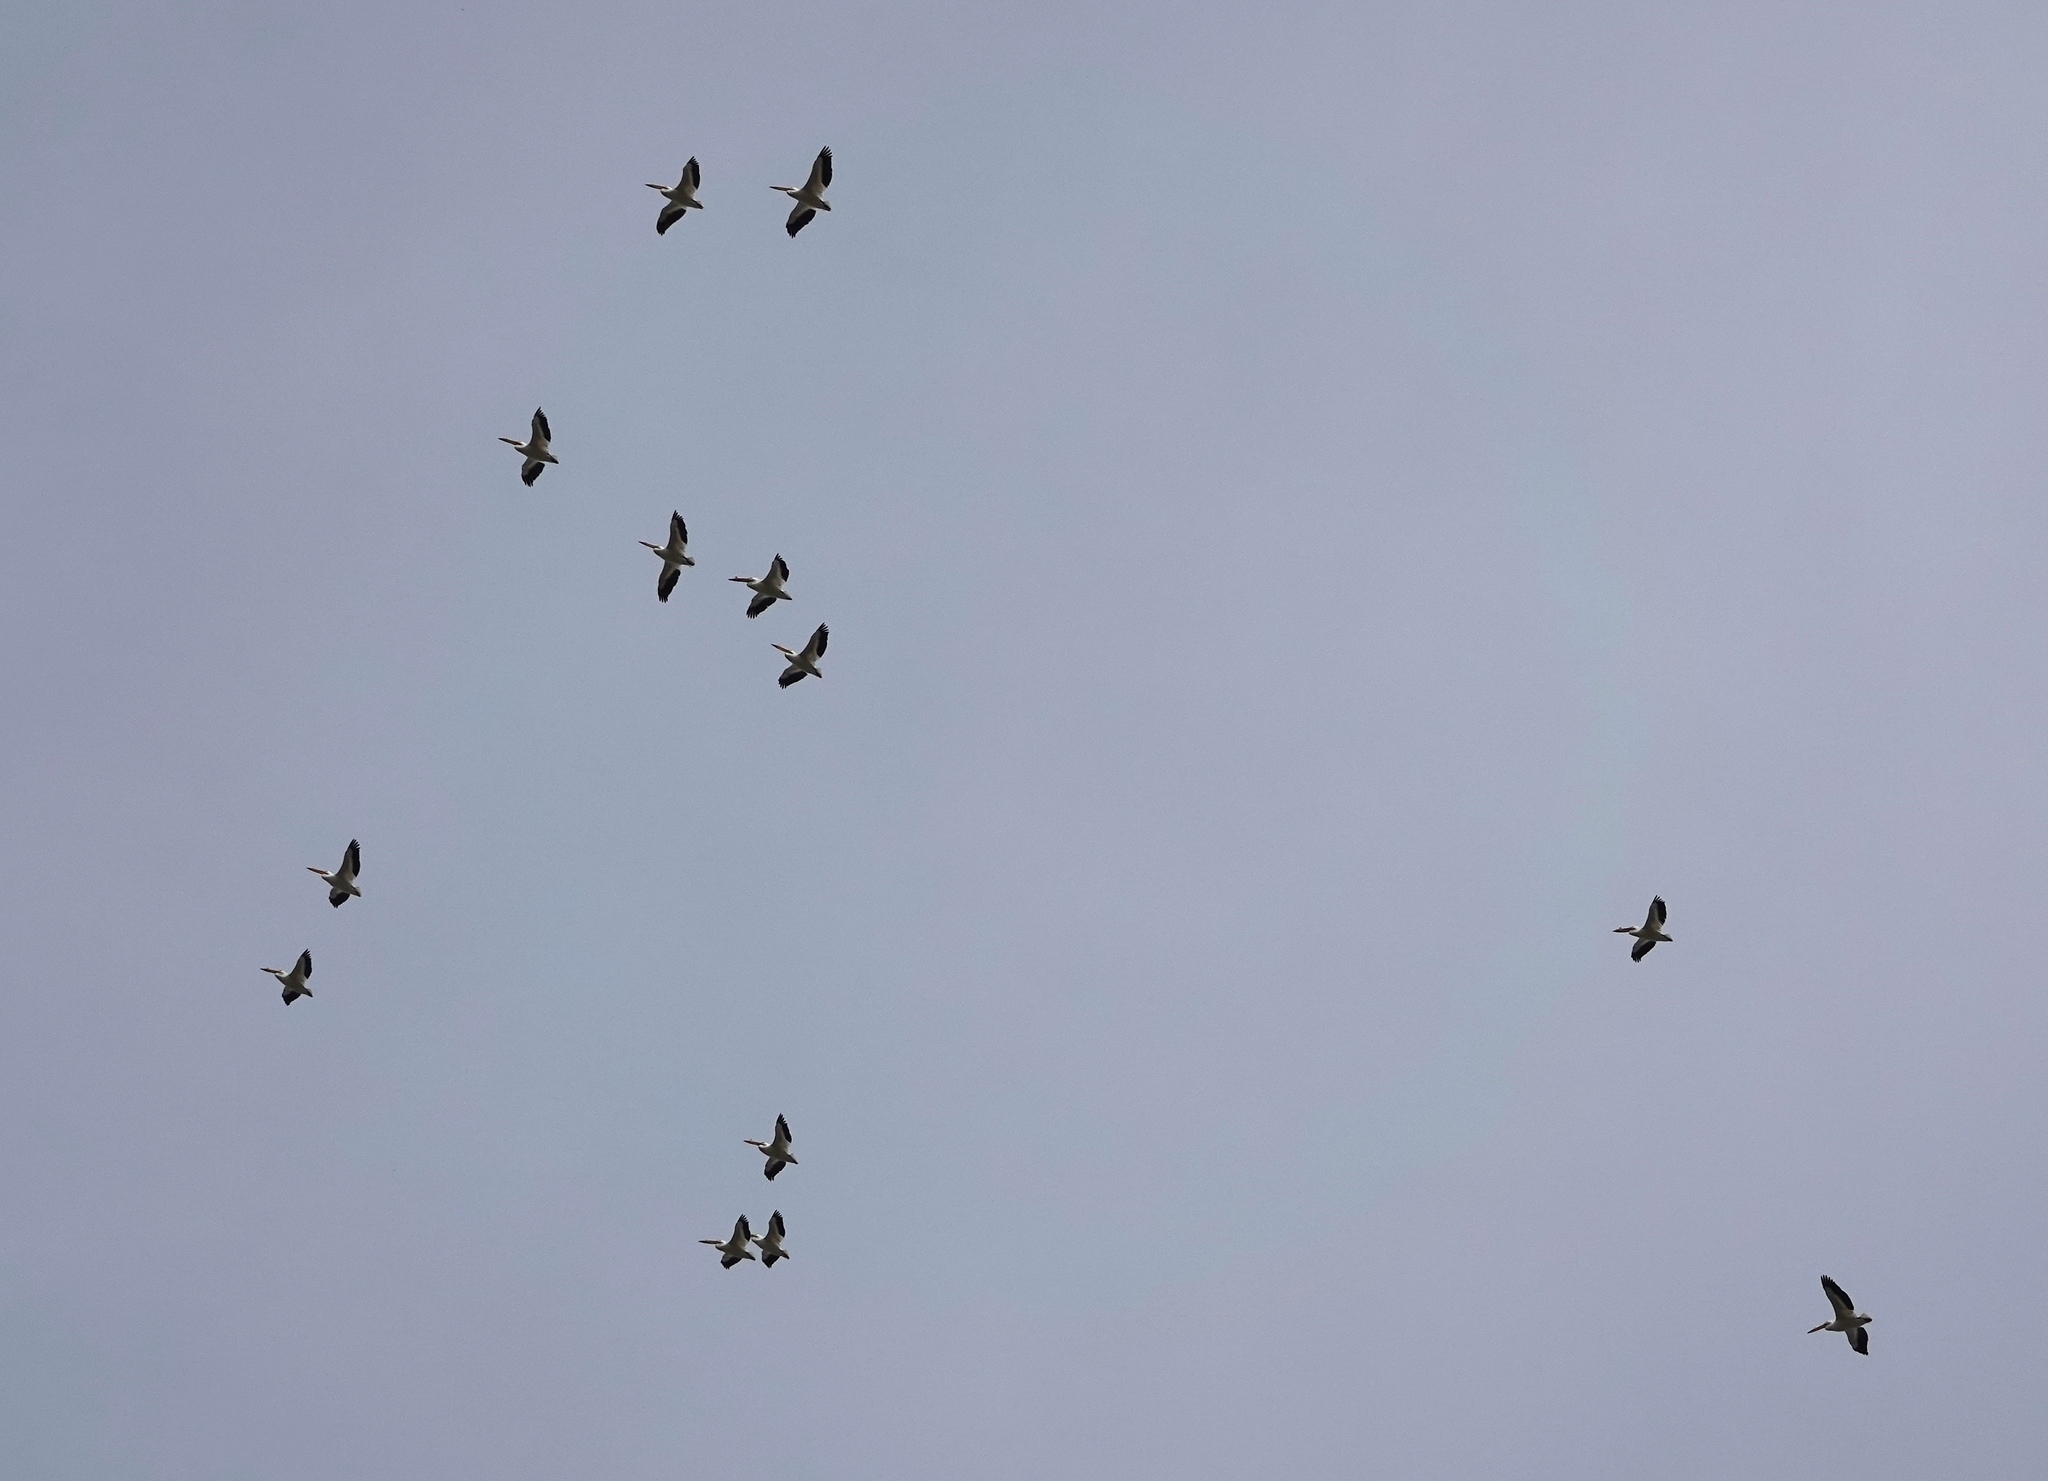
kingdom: Animalia
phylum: Chordata
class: Aves
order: Pelecaniformes
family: Pelecanidae
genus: Pelecanus
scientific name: Pelecanus erythrorhynchos
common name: American white pelican
